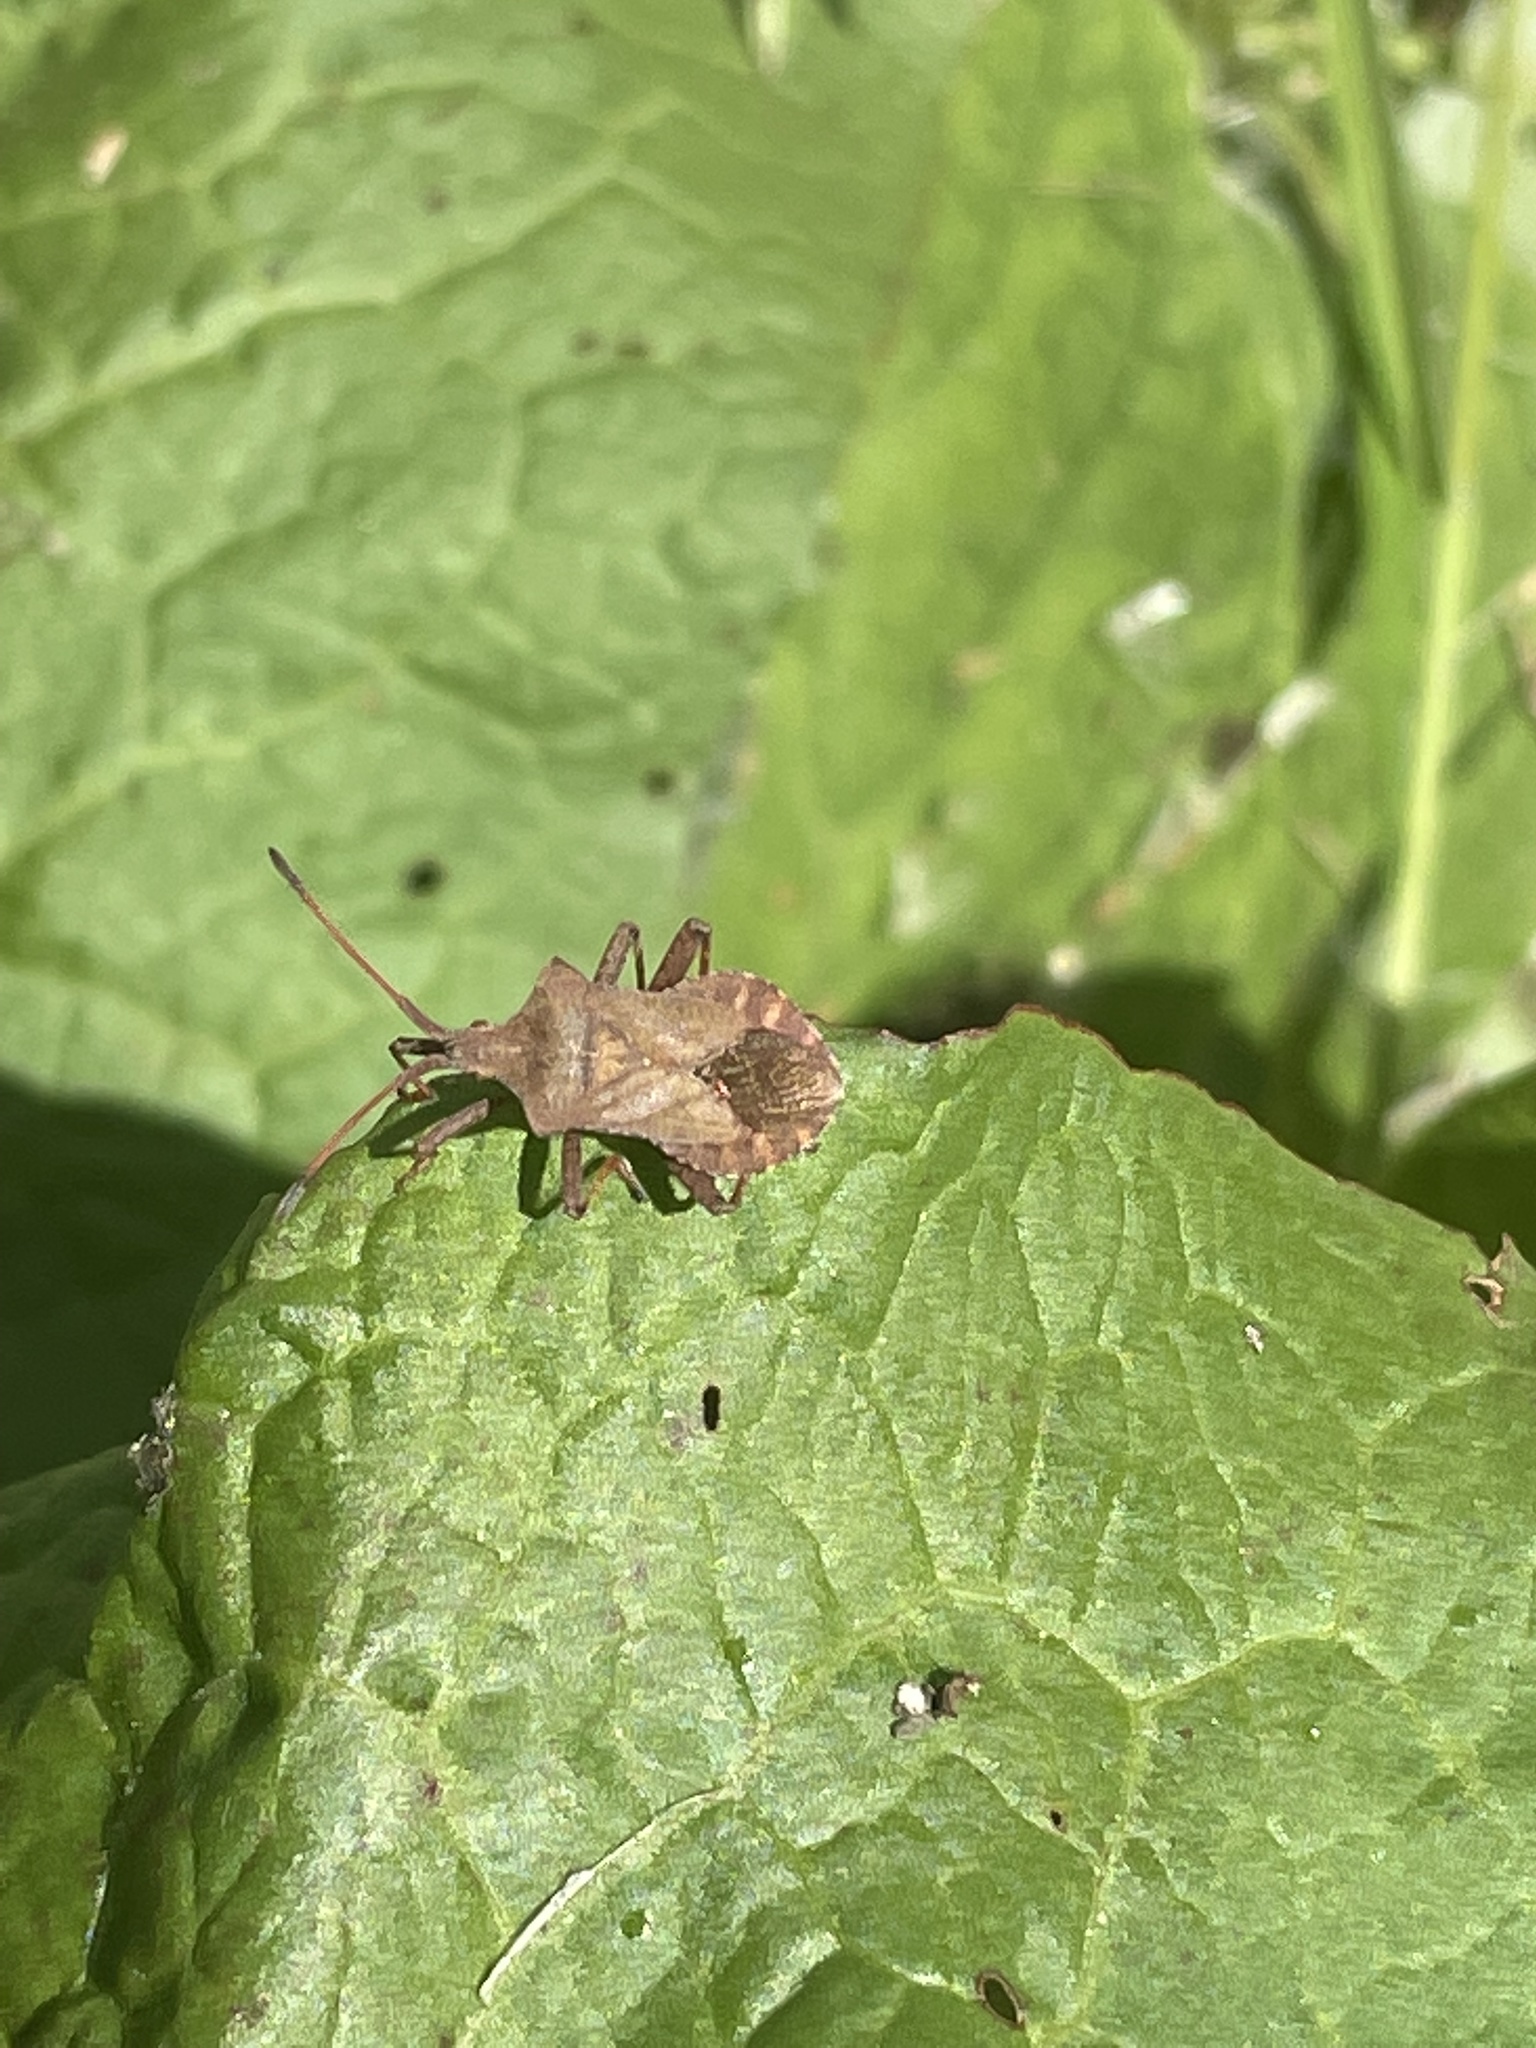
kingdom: Animalia
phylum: Arthropoda
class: Insecta
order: Hemiptera
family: Coreidae
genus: Coreus
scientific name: Coreus marginatus
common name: Dock bug
